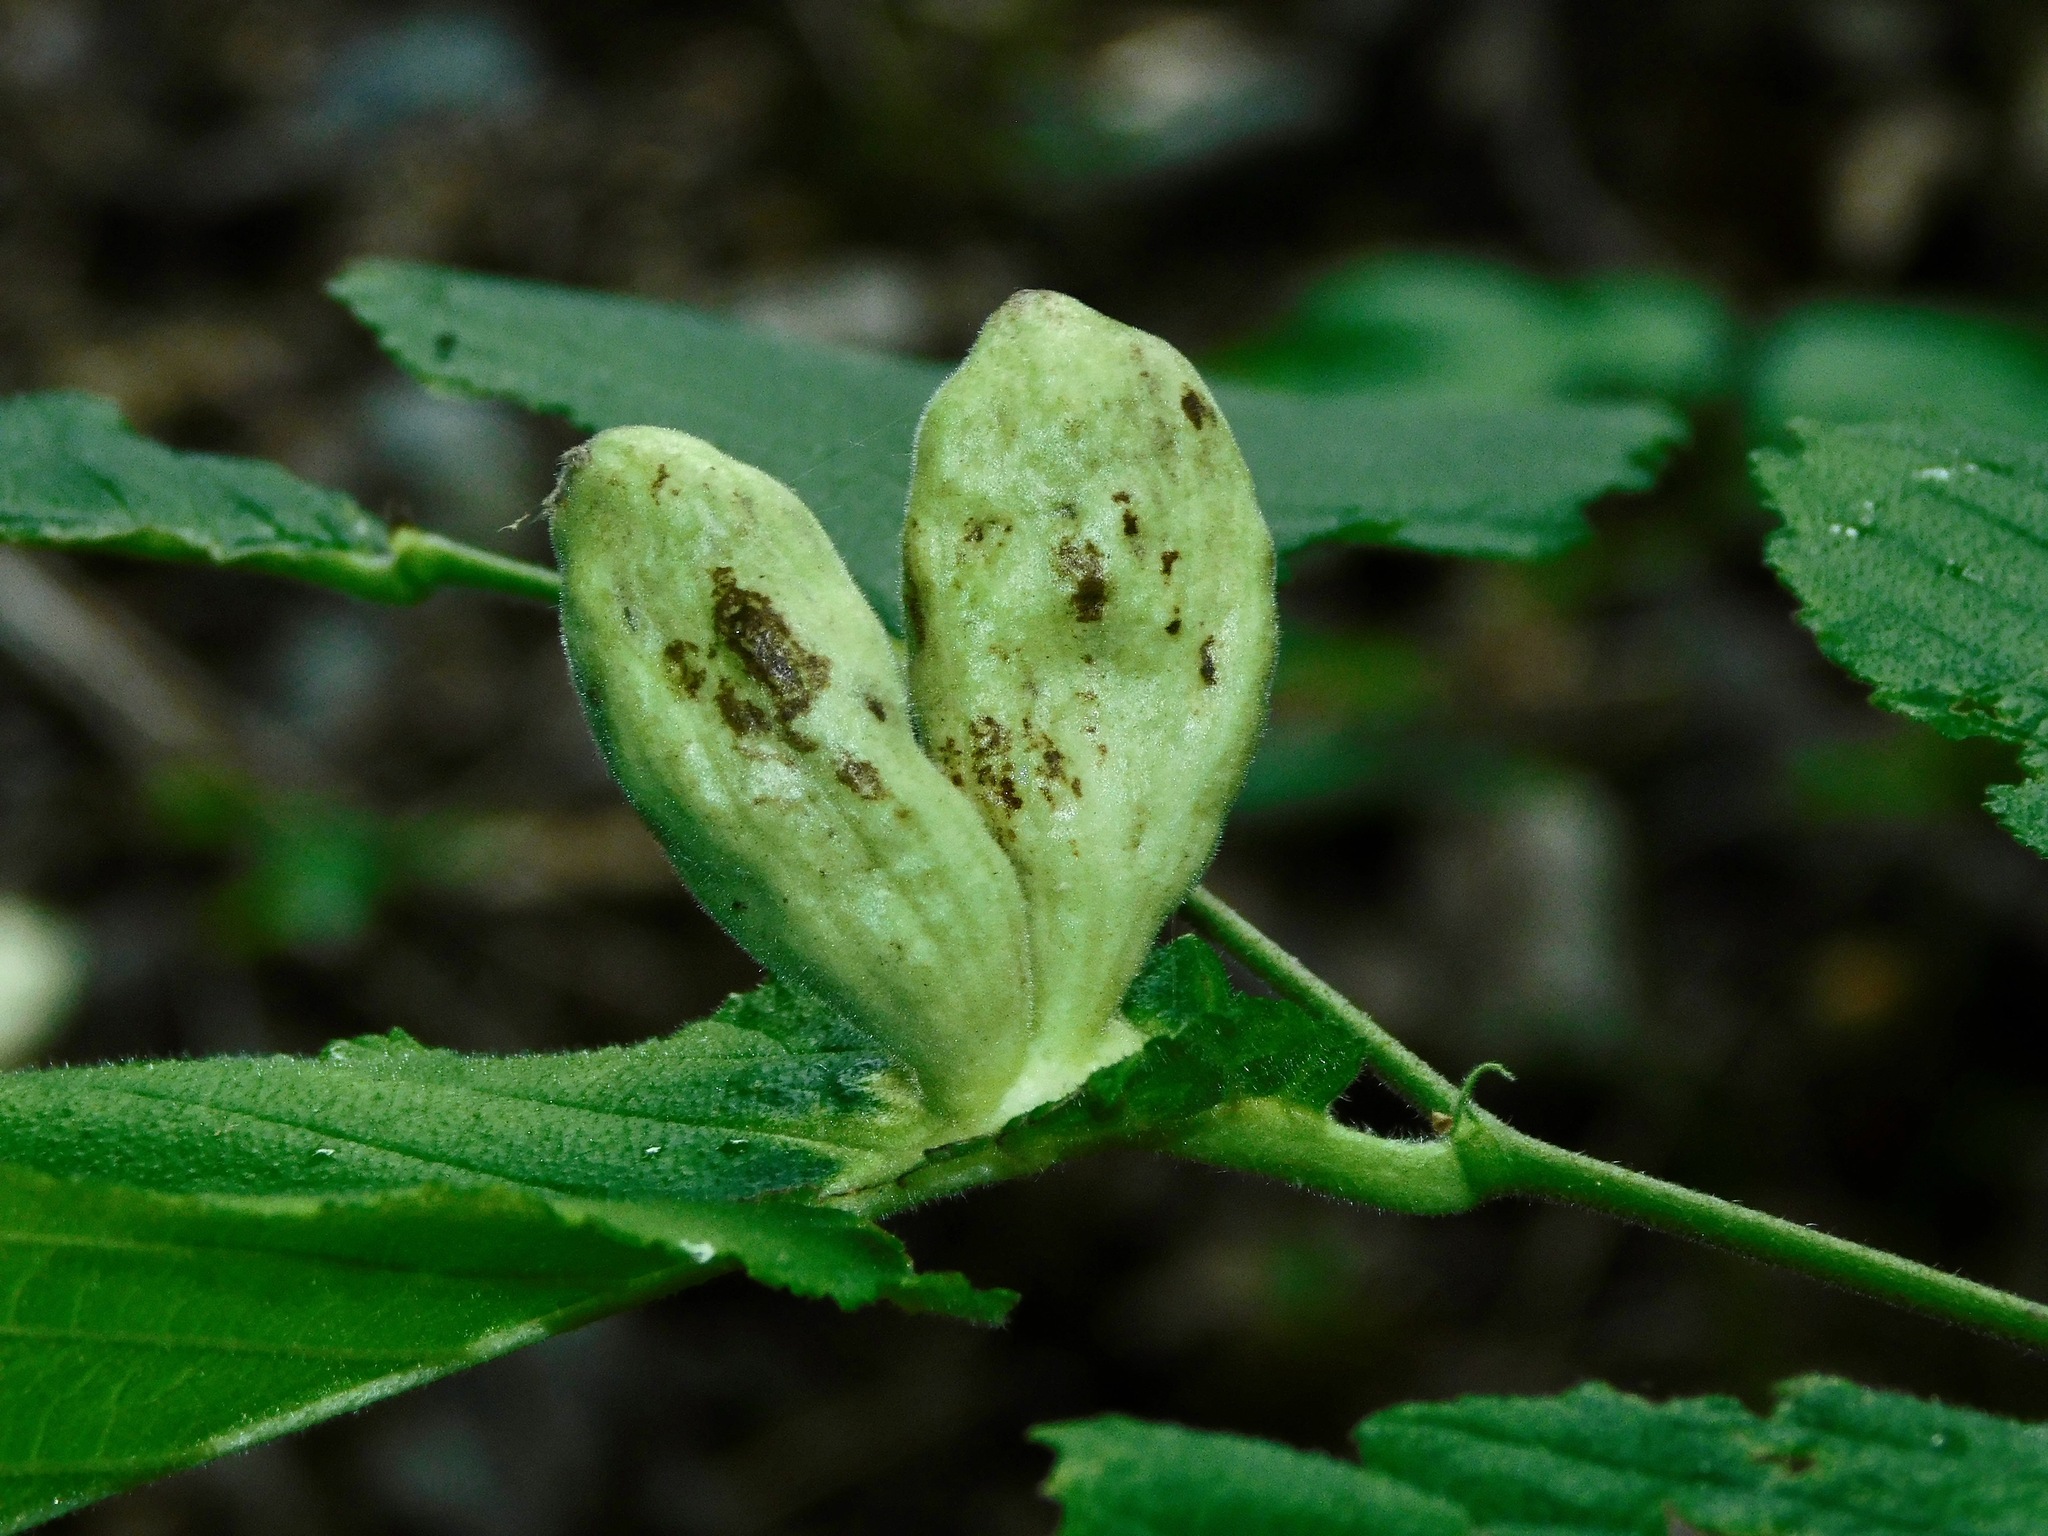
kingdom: Animalia
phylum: Arthropoda
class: Insecta
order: Hemiptera
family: Aphididae
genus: Kaltenbachiella
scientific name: Kaltenbachiella ulmifusa
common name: Elm pouchgall aphid
